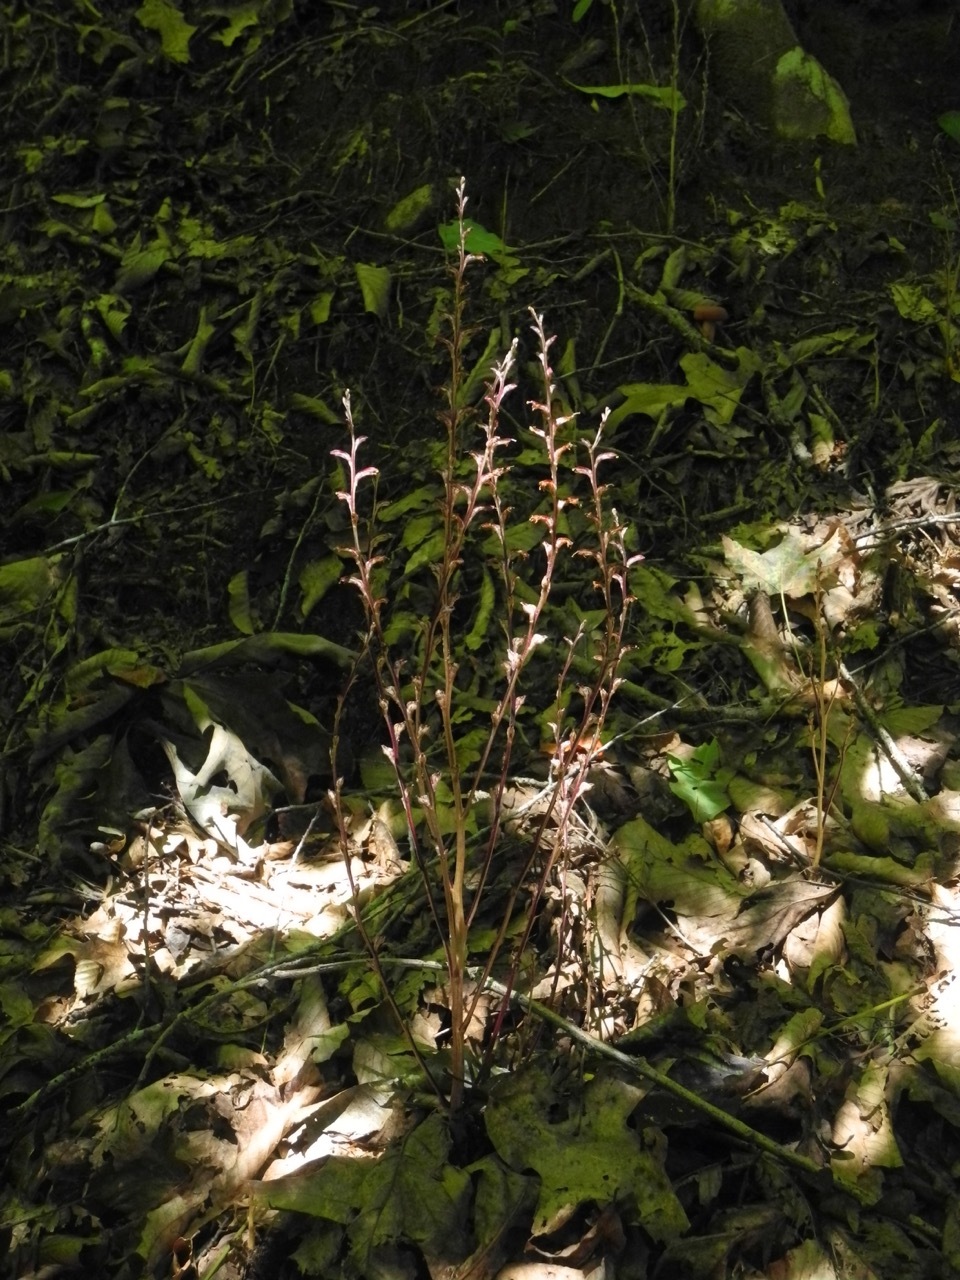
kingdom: Plantae
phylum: Tracheophyta
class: Magnoliopsida
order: Lamiales
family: Orobanchaceae
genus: Epifagus
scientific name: Epifagus virginiana
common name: Beechdrops
